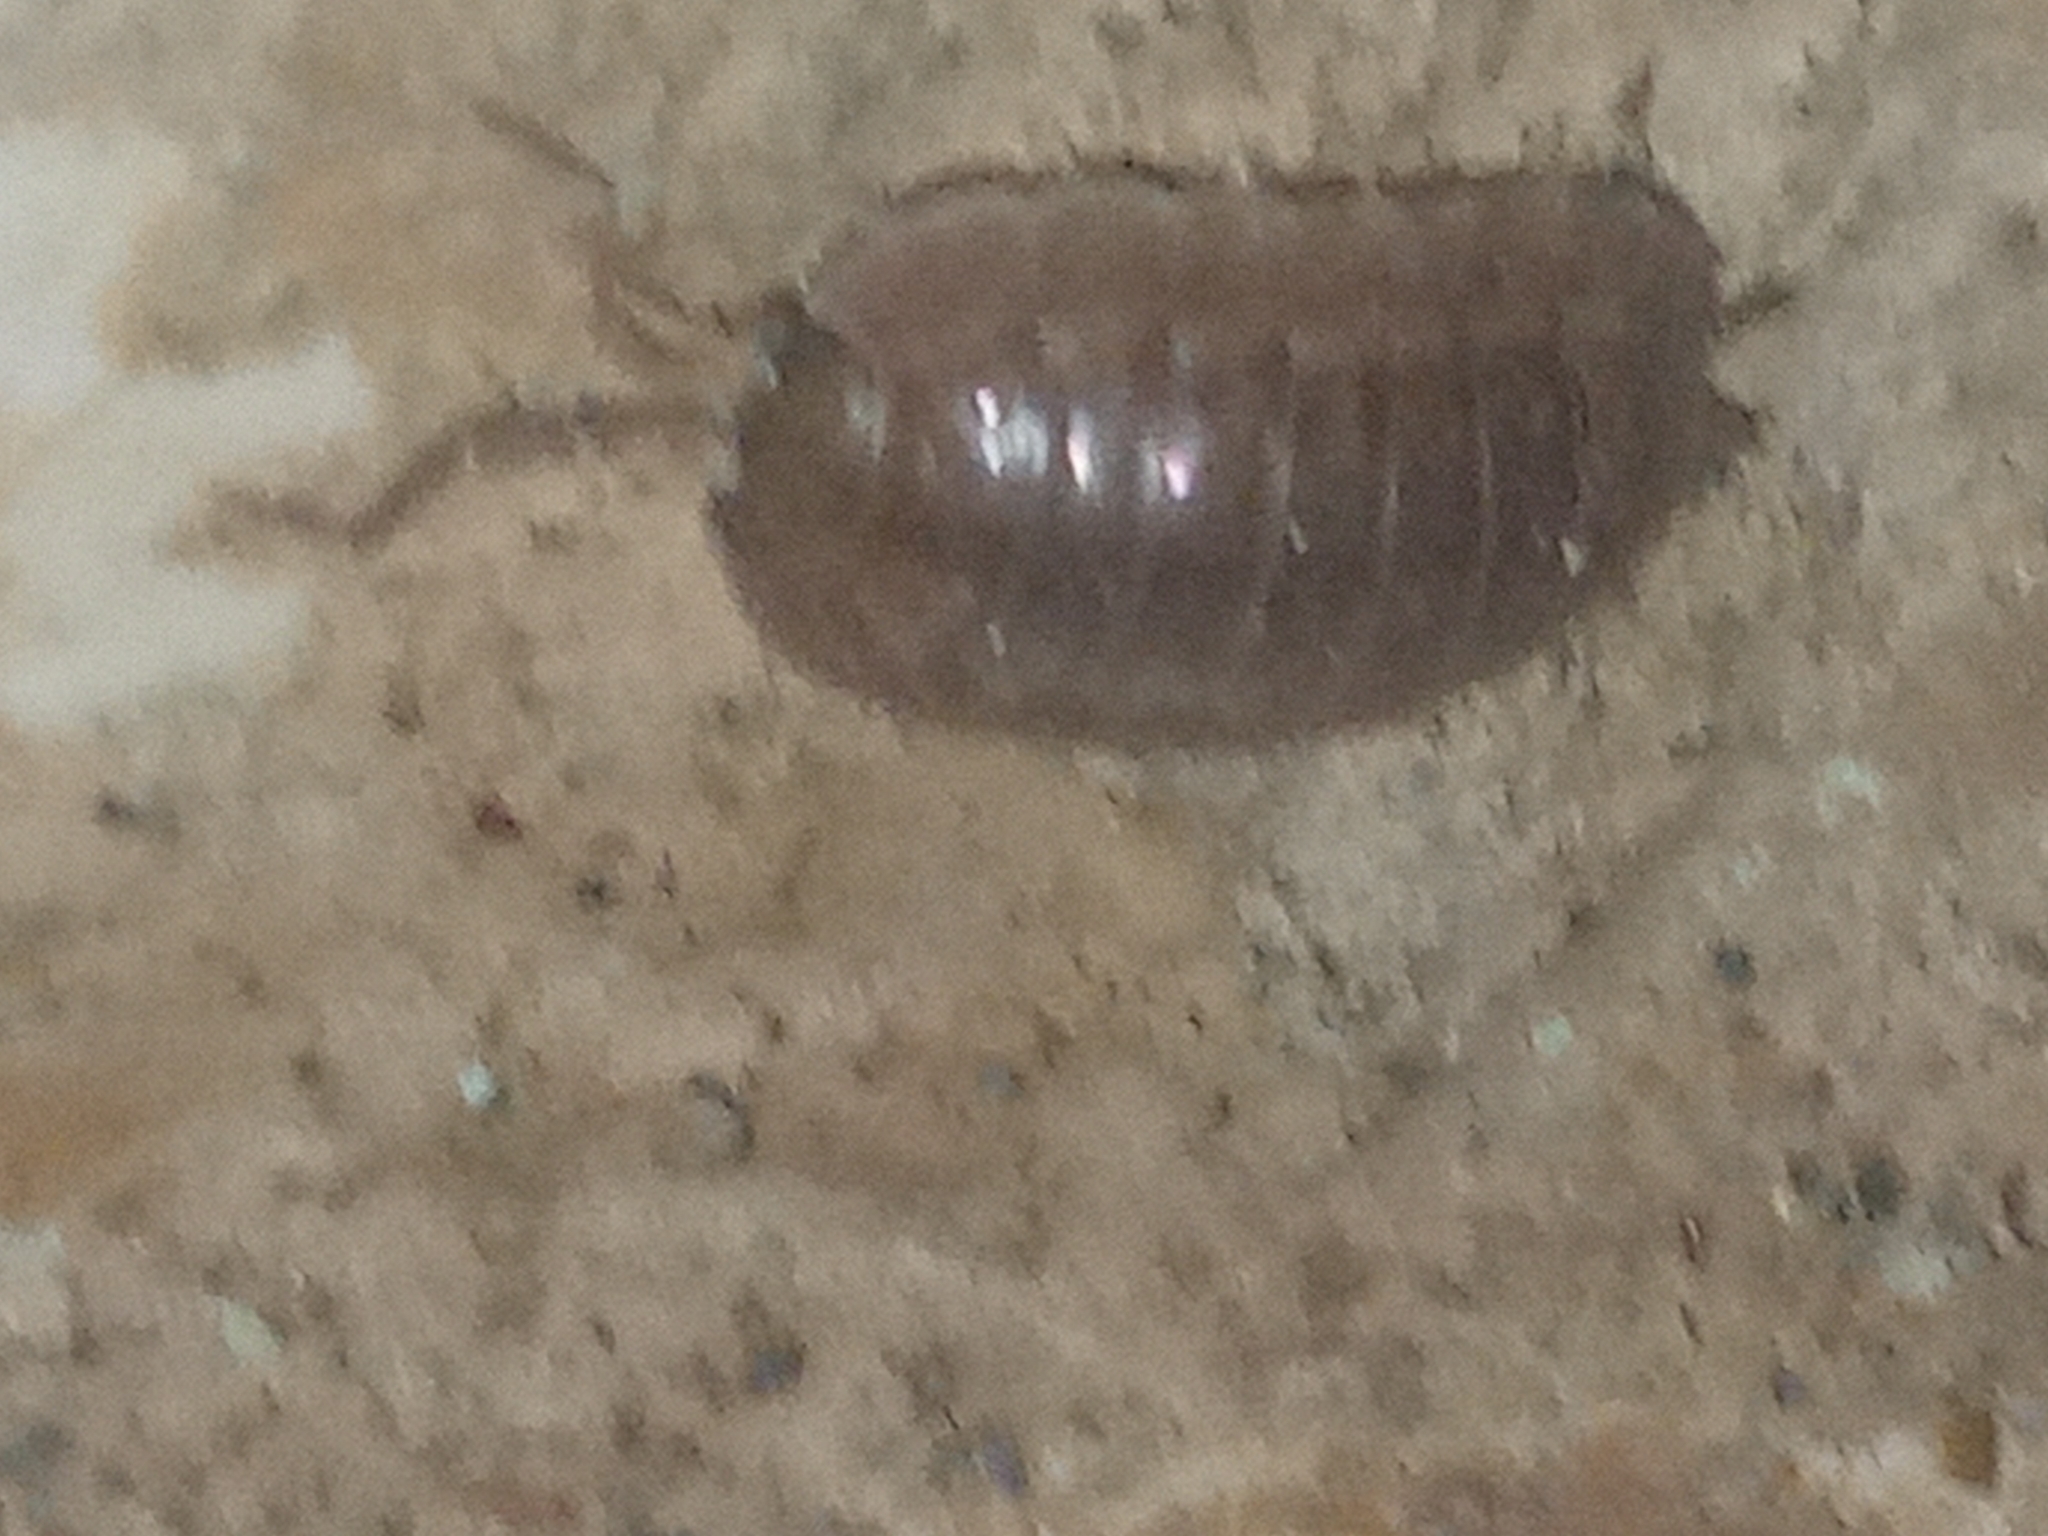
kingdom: Animalia
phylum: Arthropoda
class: Malacostraca
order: Isopoda
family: Porcellionidae
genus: Porcellio
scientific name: Porcellio laevis
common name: Swift woodlouse
